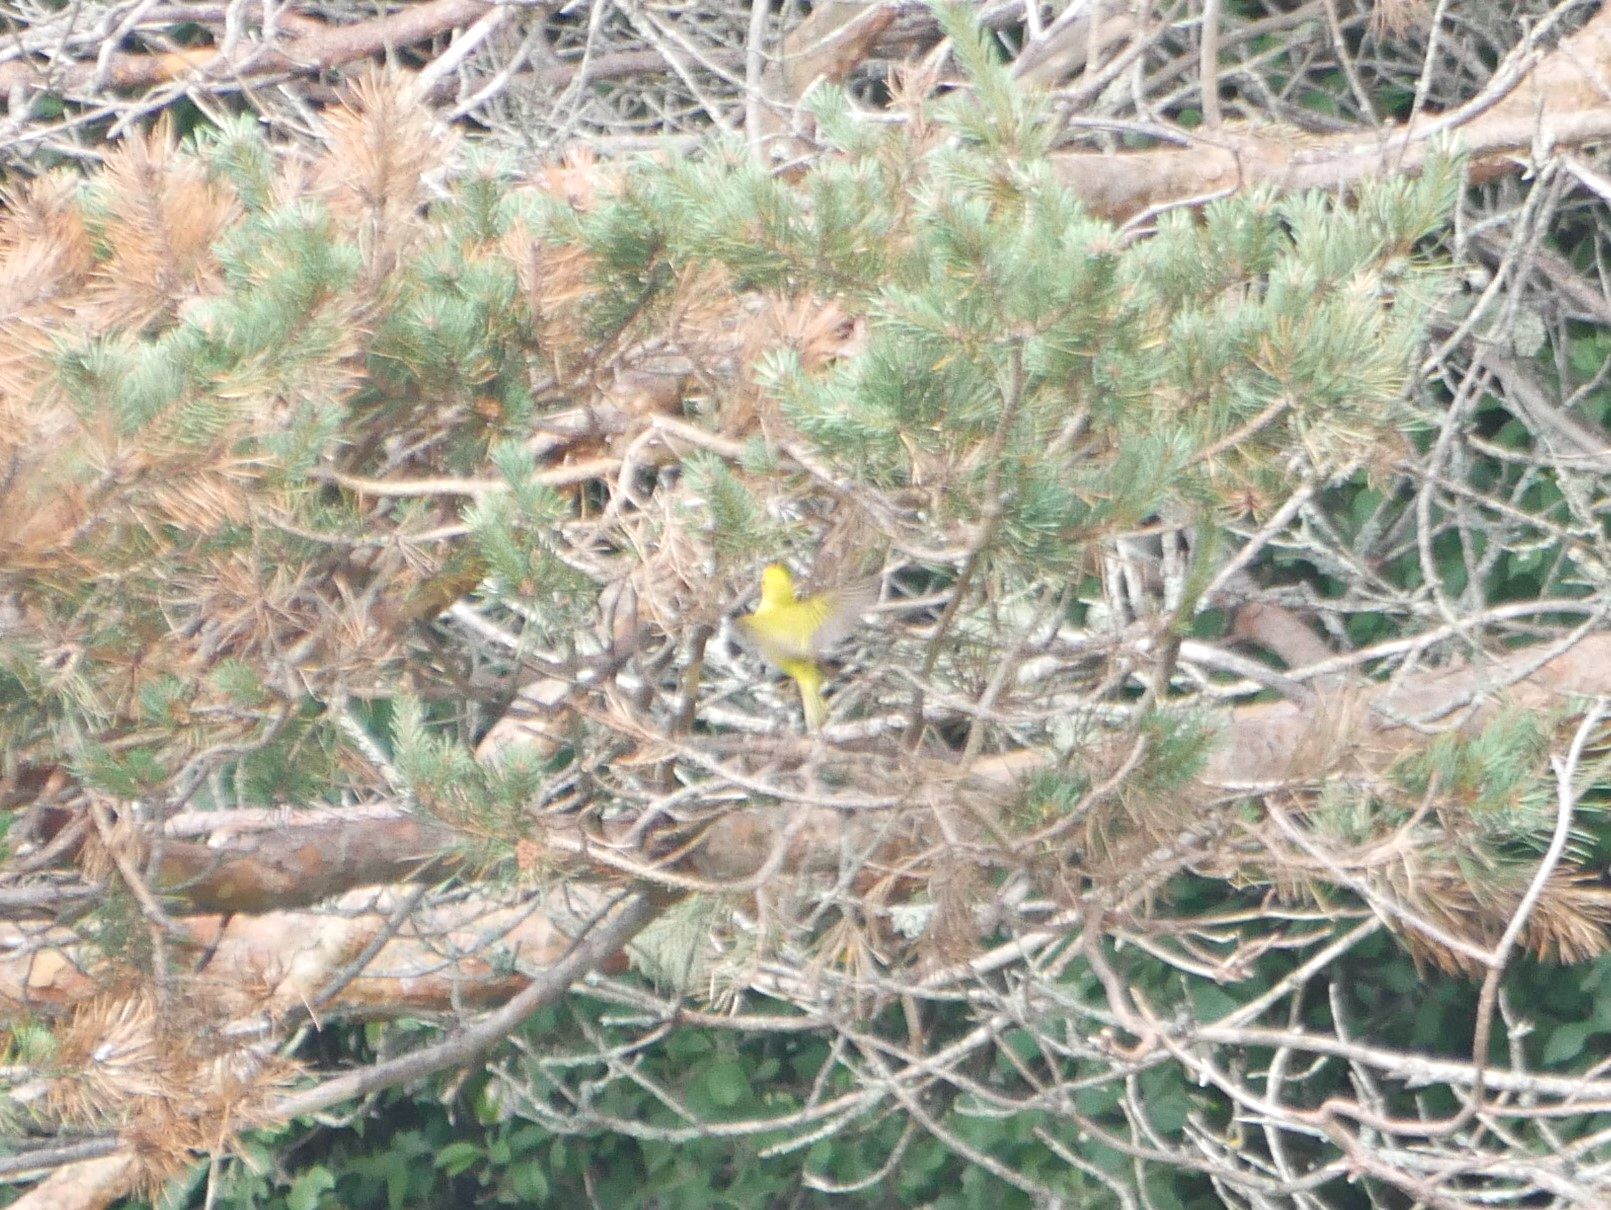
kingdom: Animalia
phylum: Chordata
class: Aves
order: Passeriformes
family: Parulidae
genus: Setophaga
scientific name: Setophaga petechia
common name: Yellow warbler
